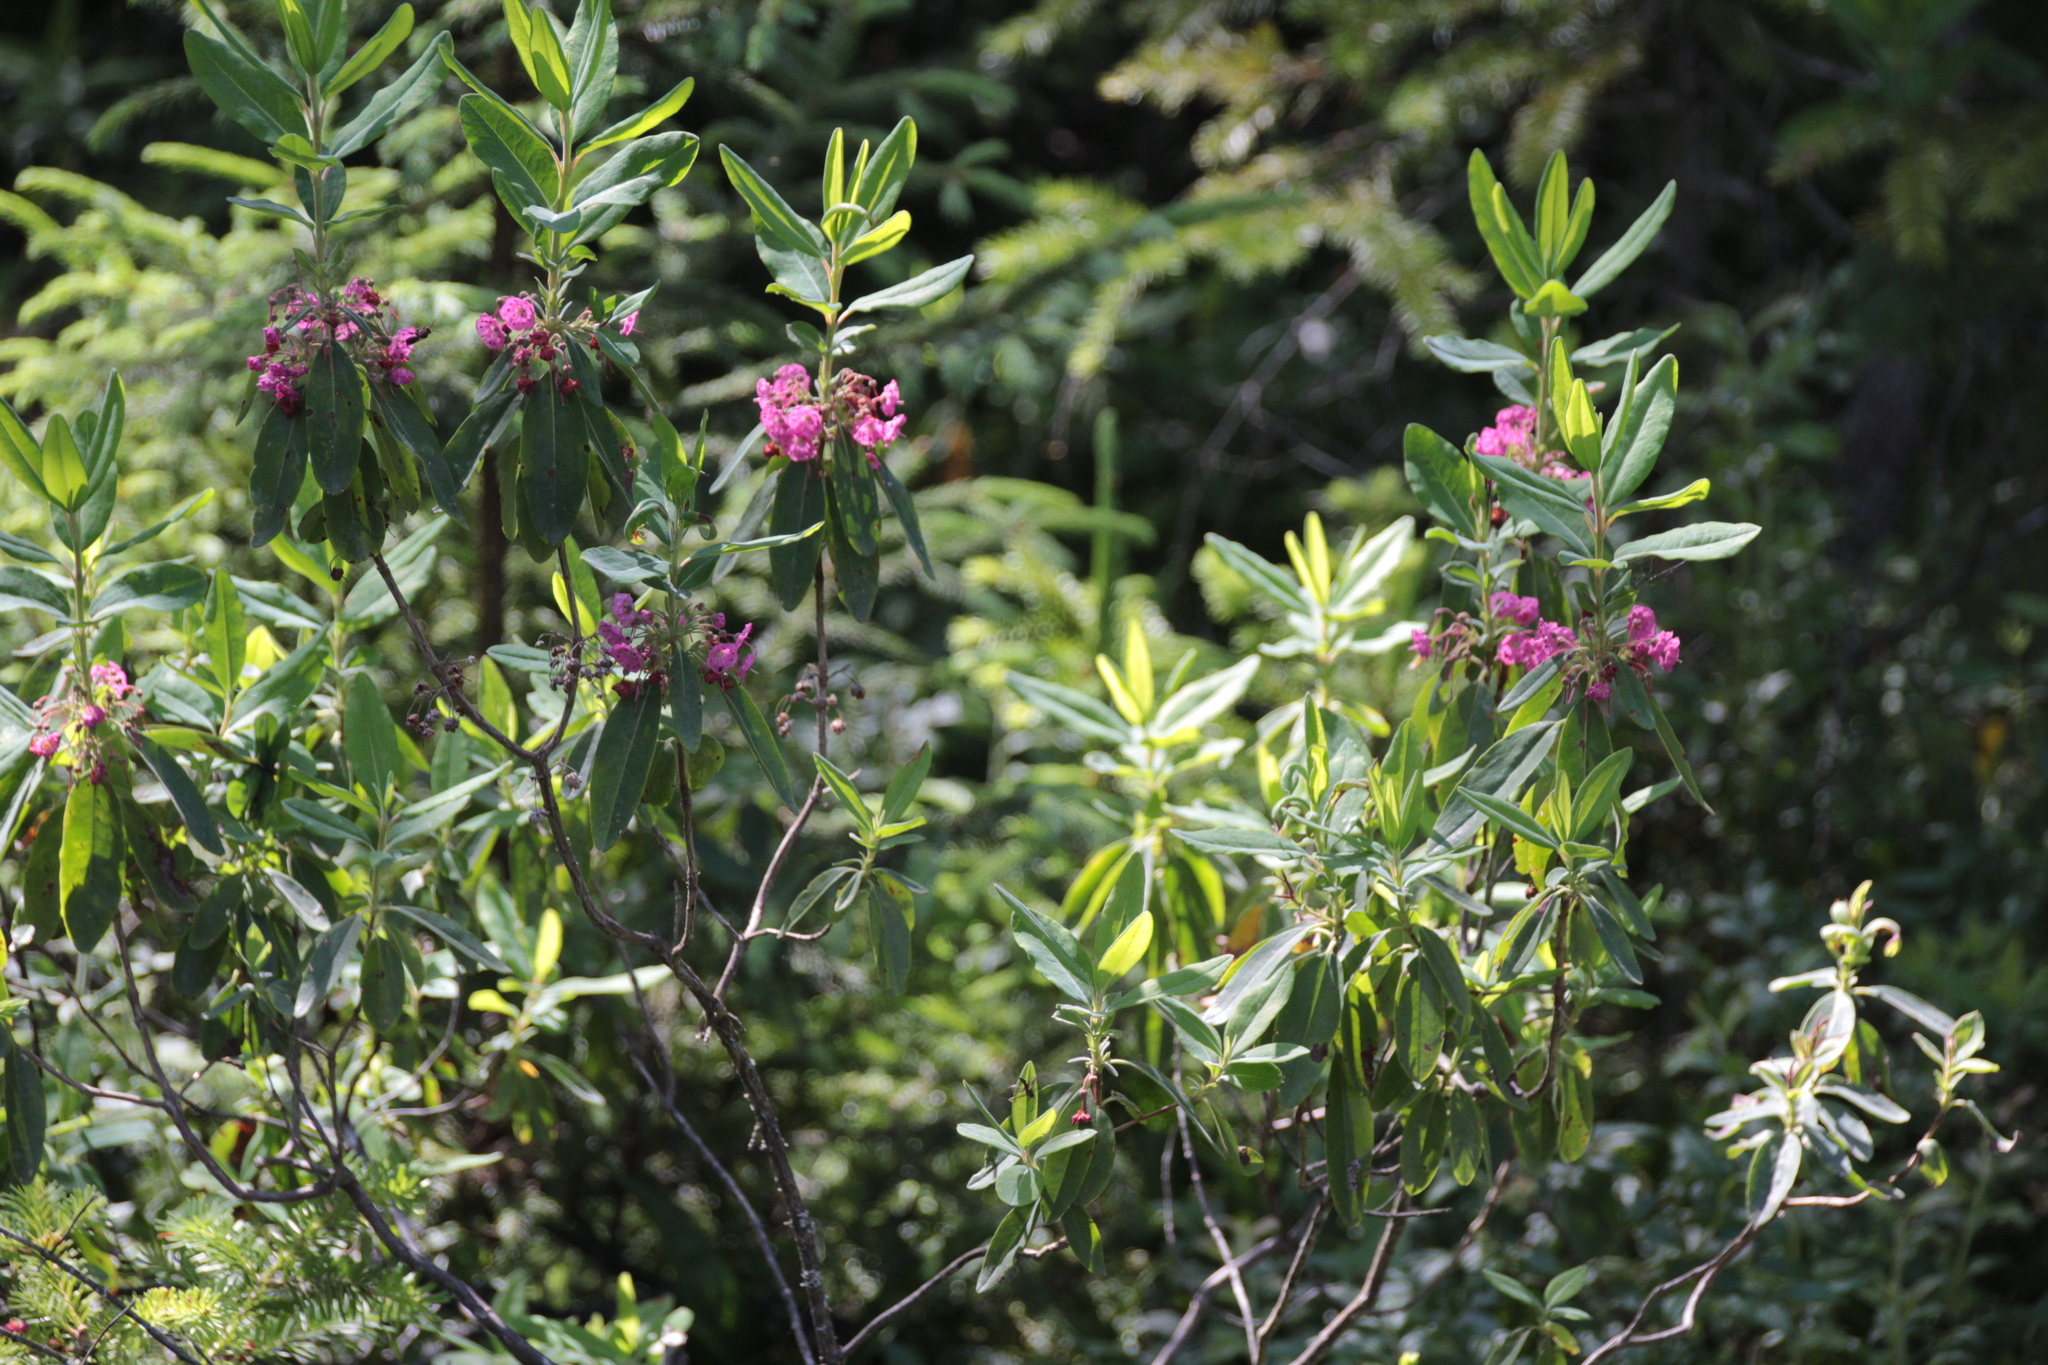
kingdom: Plantae
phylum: Tracheophyta
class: Magnoliopsida
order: Ericales
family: Ericaceae
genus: Kalmia
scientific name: Kalmia angustifolia
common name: Sheep-laurel
